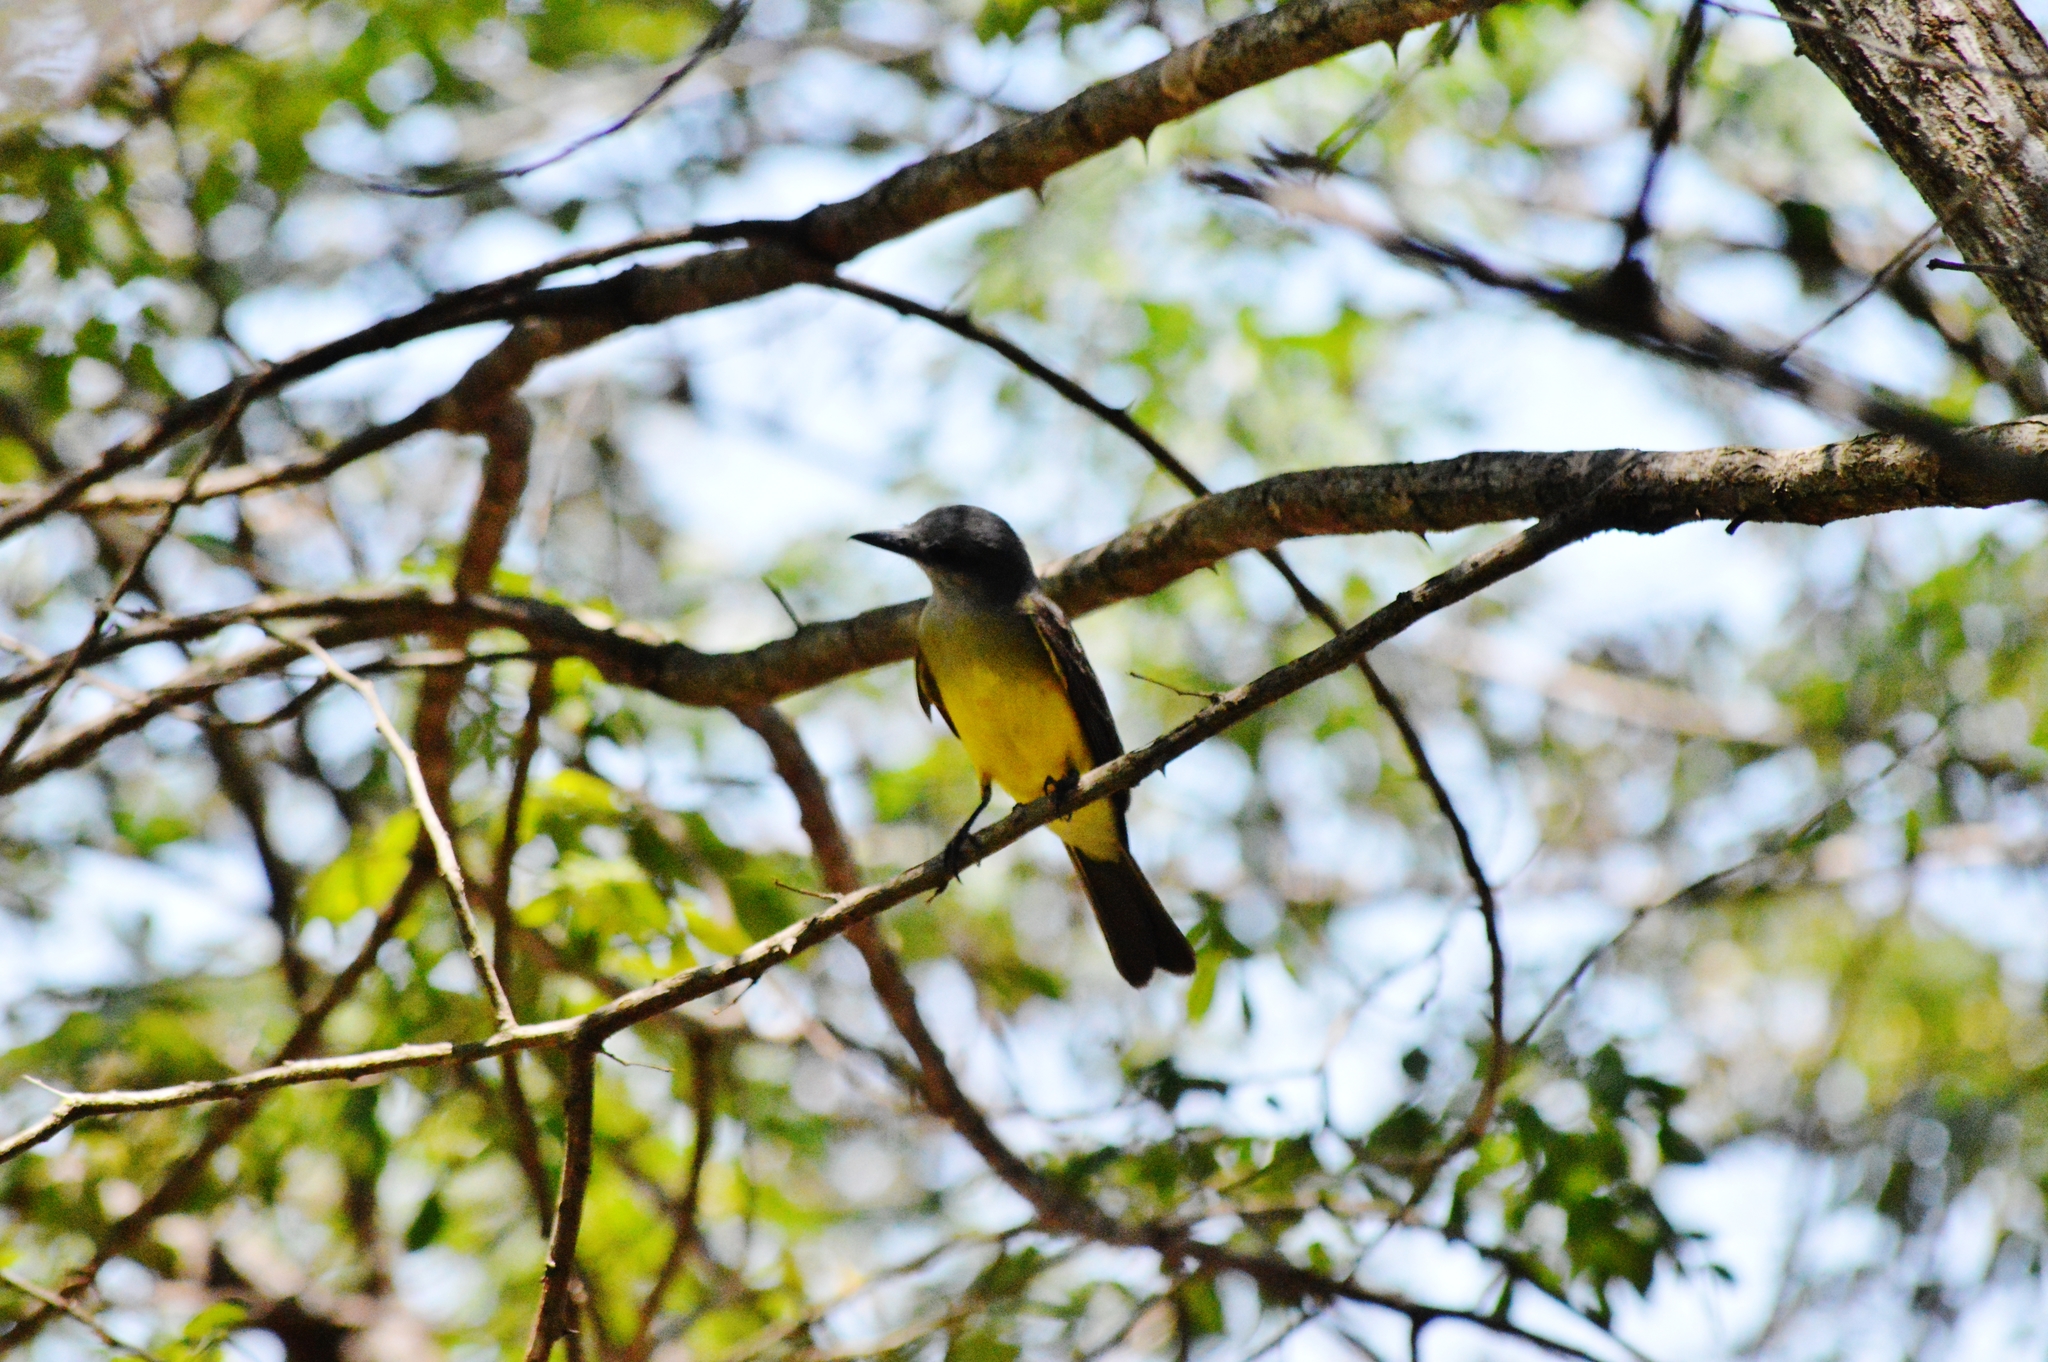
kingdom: Animalia
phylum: Chordata
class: Aves
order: Passeriformes
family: Tyrannidae
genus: Tyrannus
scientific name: Tyrannus melancholicus
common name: Tropical kingbird
